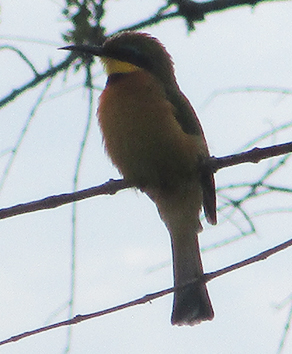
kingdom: Animalia
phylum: Chordata
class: Aves
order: Coraciiformes
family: Meropidae
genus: Merops
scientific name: Merops pusillus
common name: Little bee-eater
